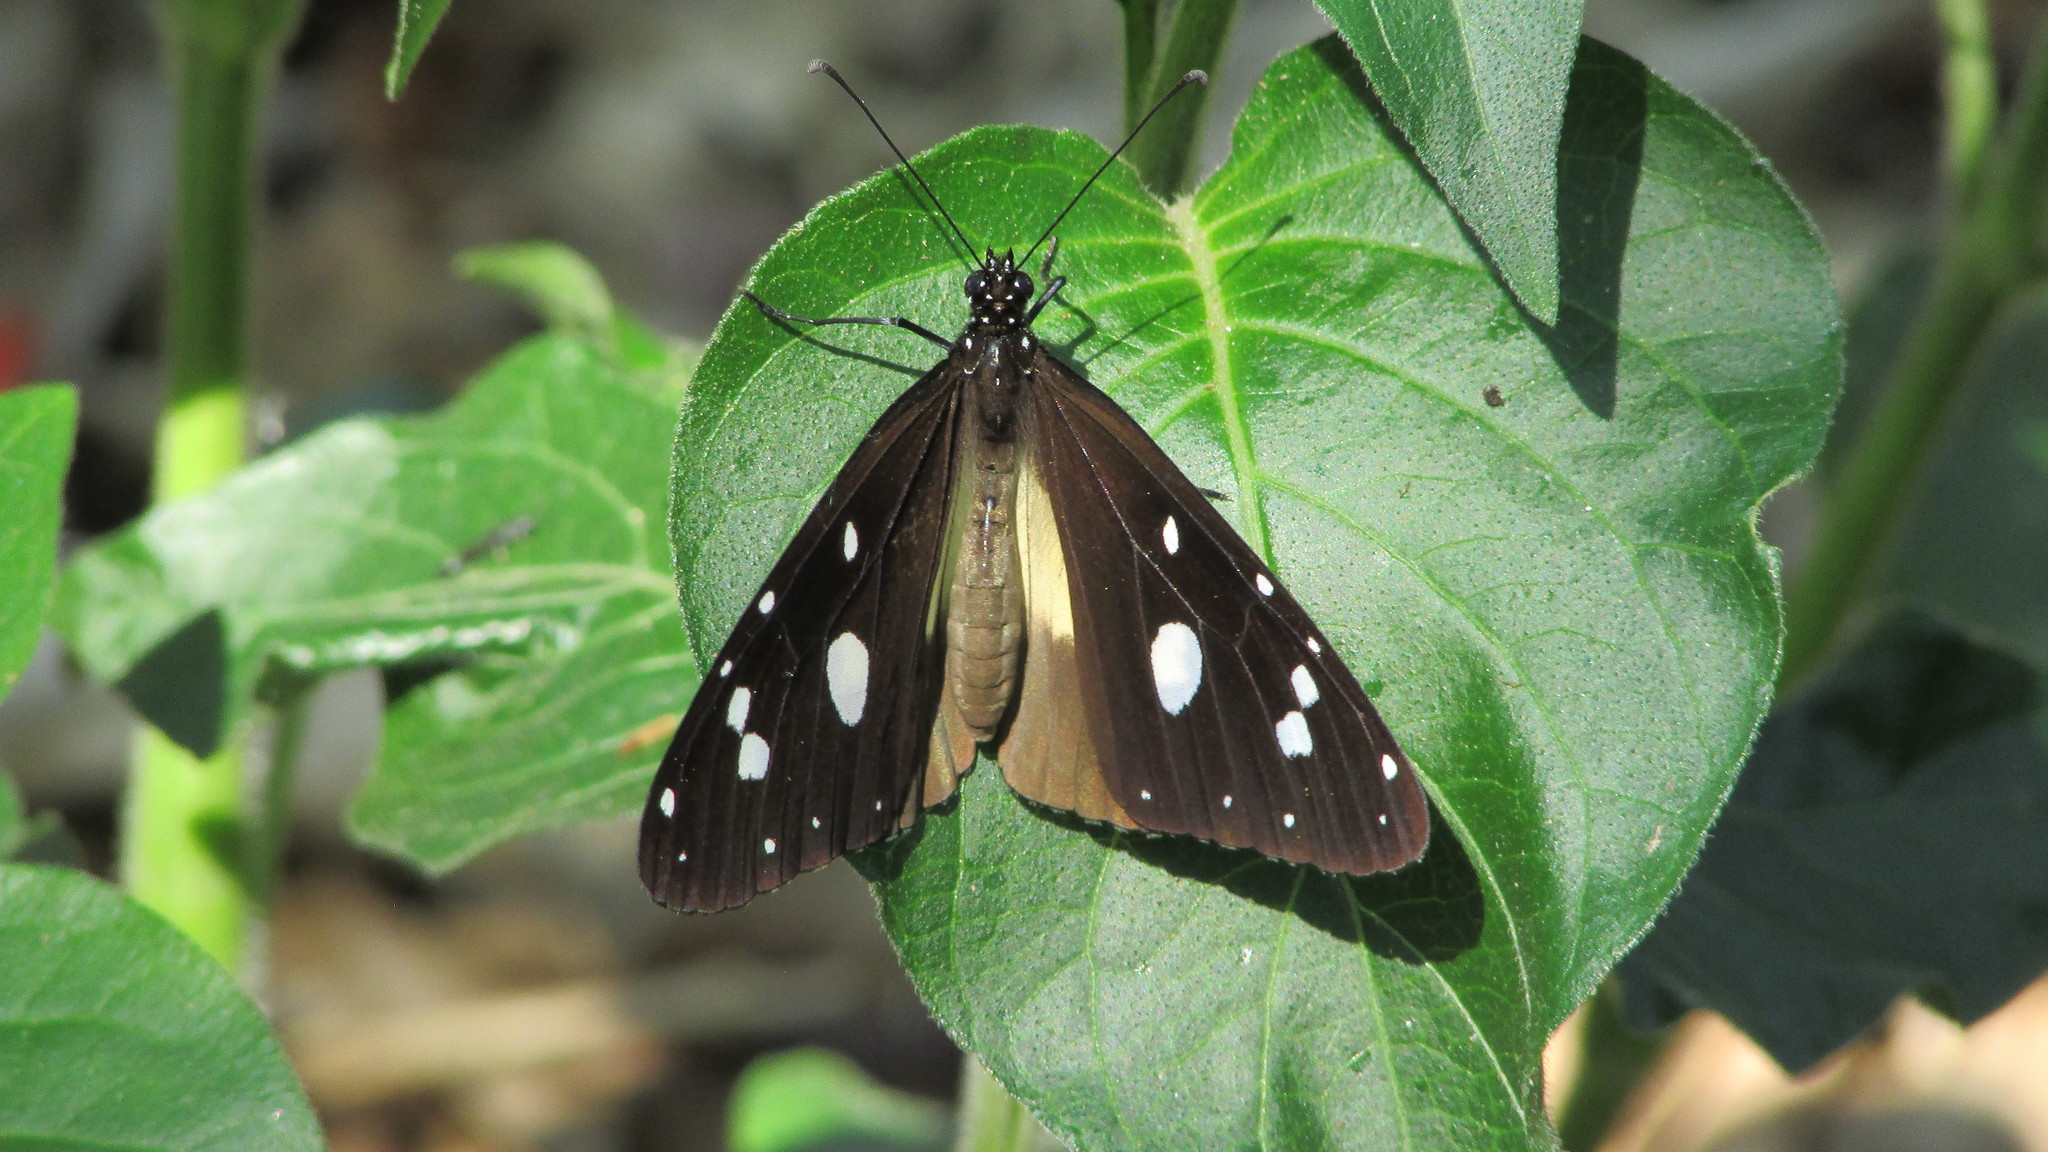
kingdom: Animalia
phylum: Arthropoda
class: Insecta
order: Lepidoptera
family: Nymphalidae
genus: Amauris
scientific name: Amauris albimaculata
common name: Layman
